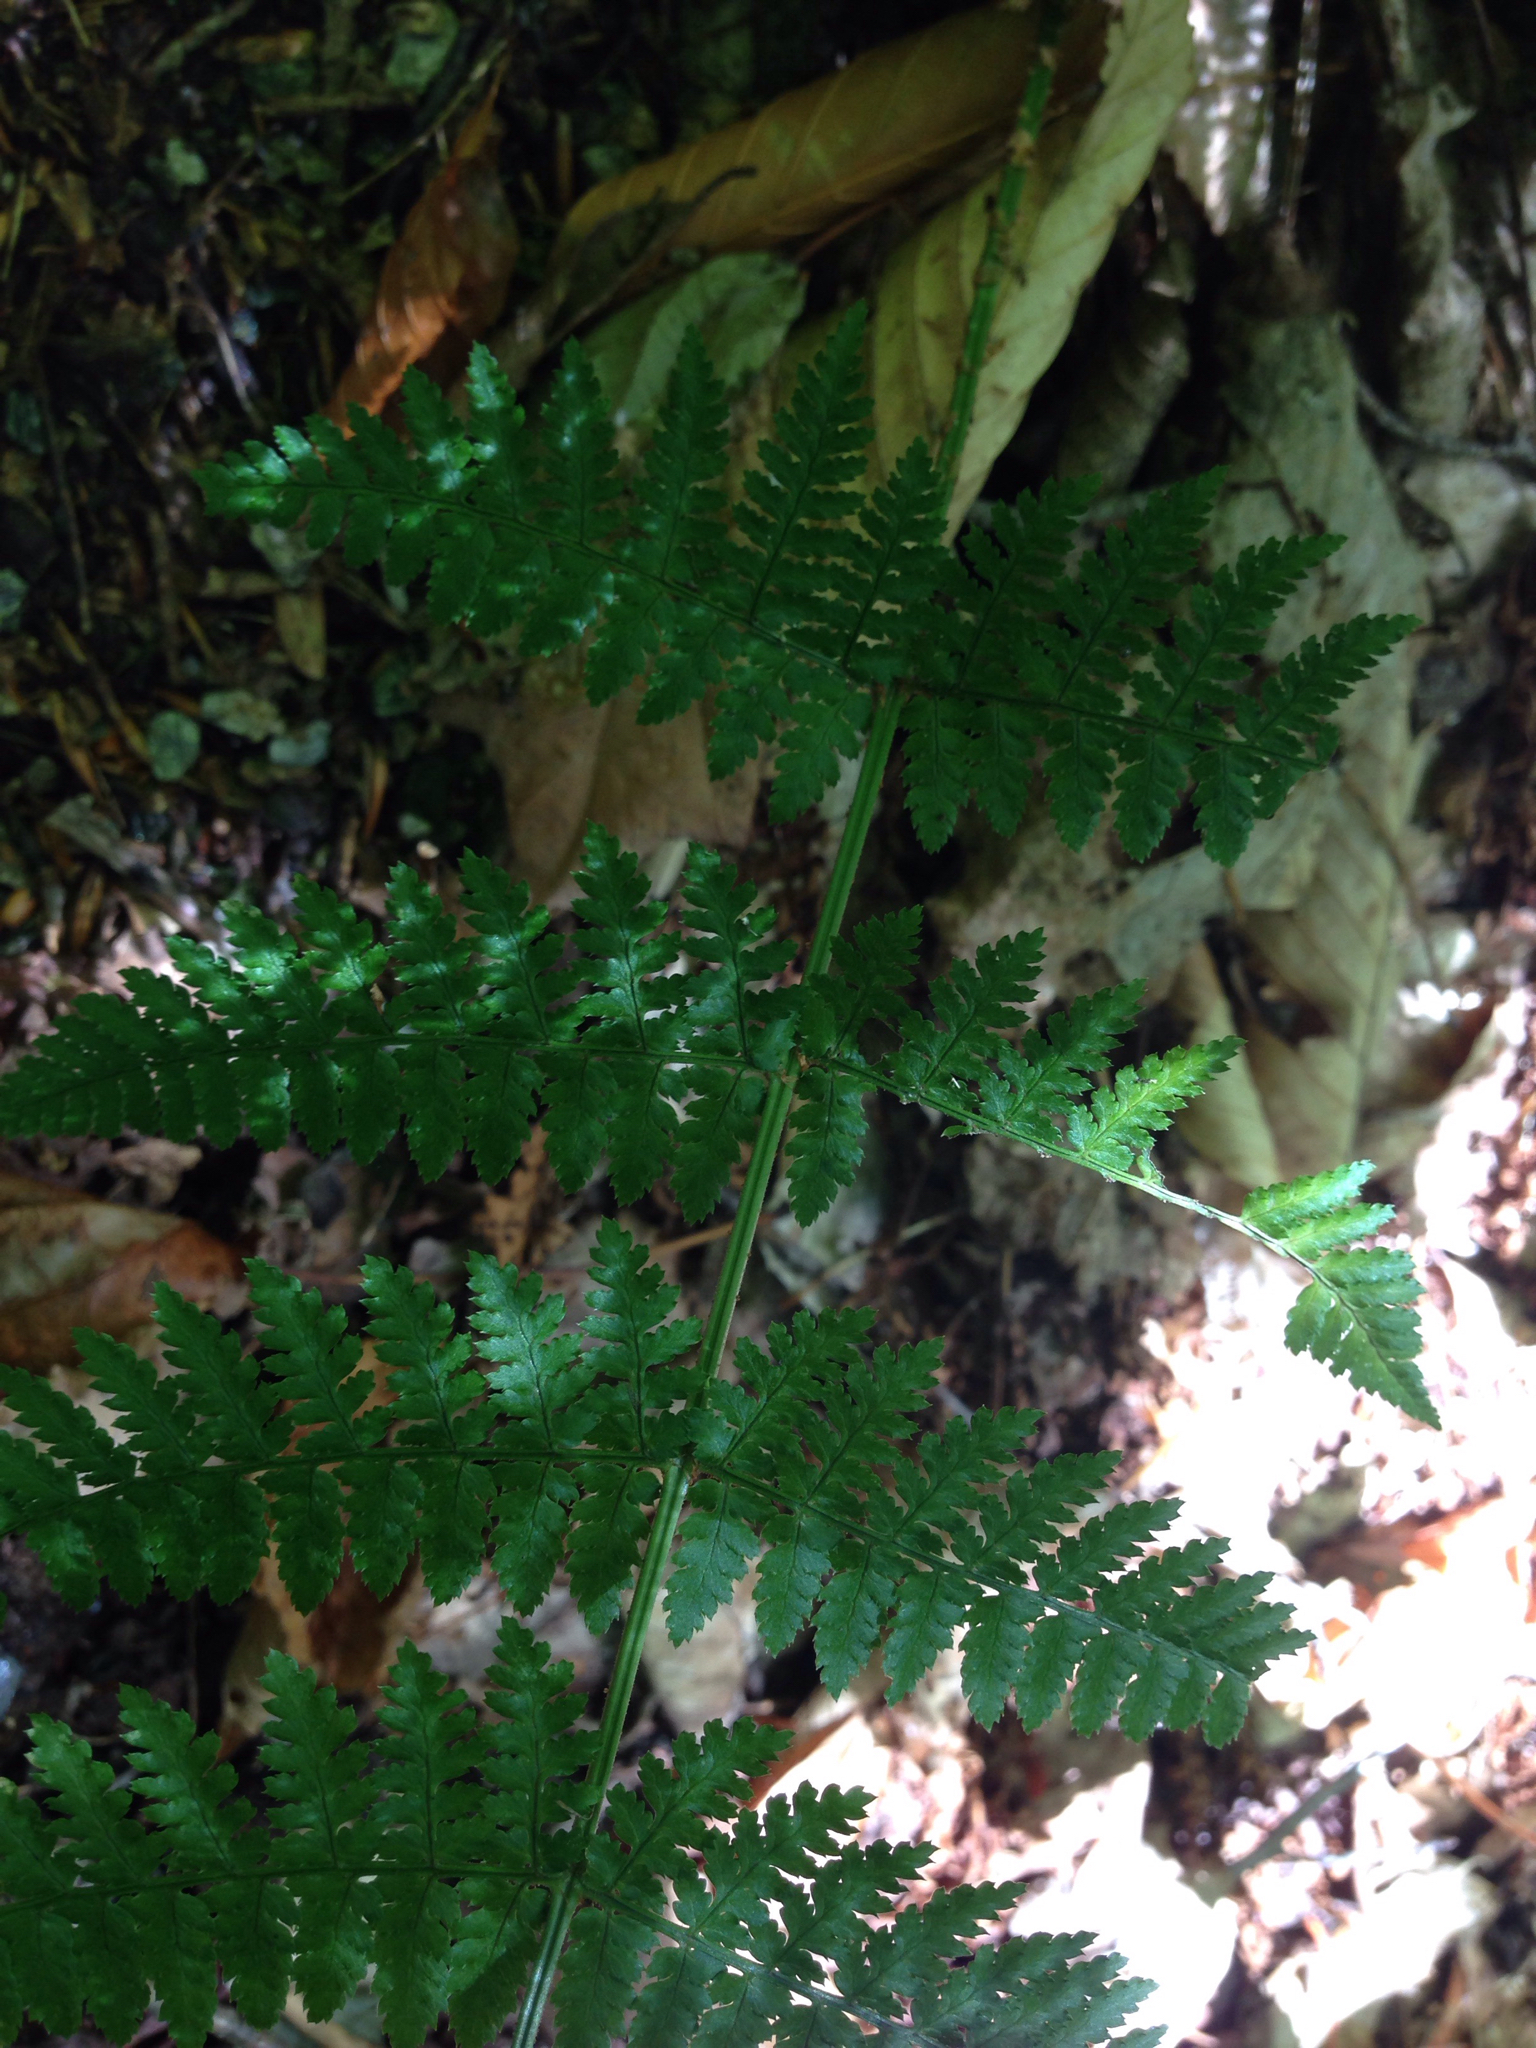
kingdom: Plantae
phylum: Tracheophyta
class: Polypodiopsida
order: Polypodiales
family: Dryopteridaceae
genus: Dryopteris
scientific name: Dryopteris intermedia
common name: Evergreen wood fern
